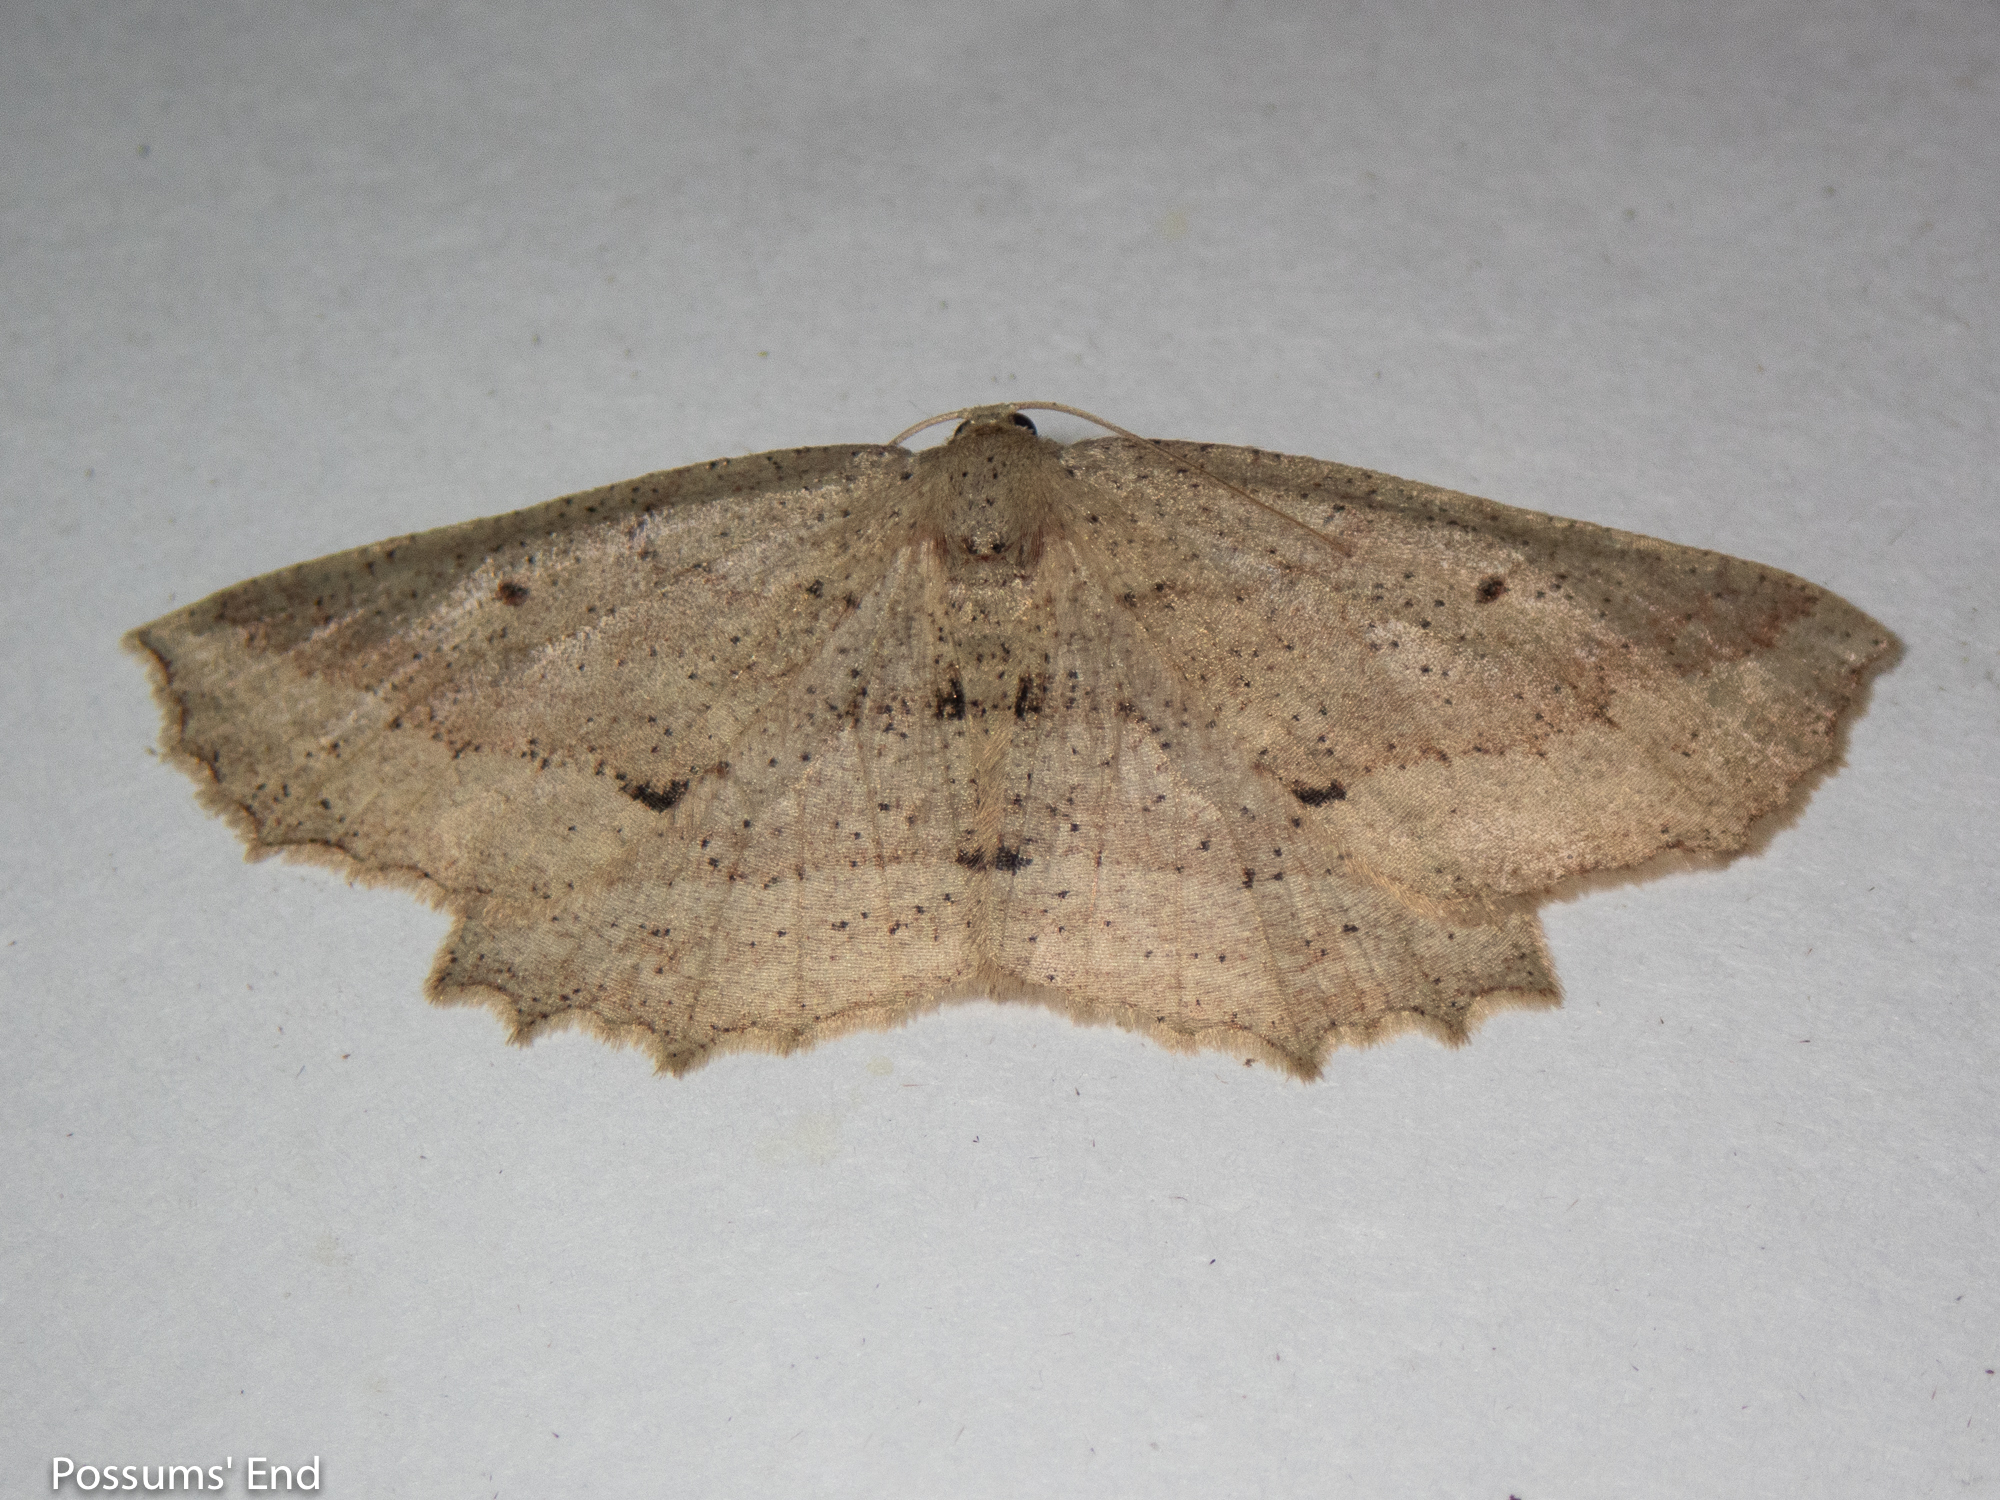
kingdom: Animalia
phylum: Arthropoda
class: Insecta
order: Lepidoptera
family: Geometridae
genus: Xyridacma
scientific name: Xyridacma veronicae
